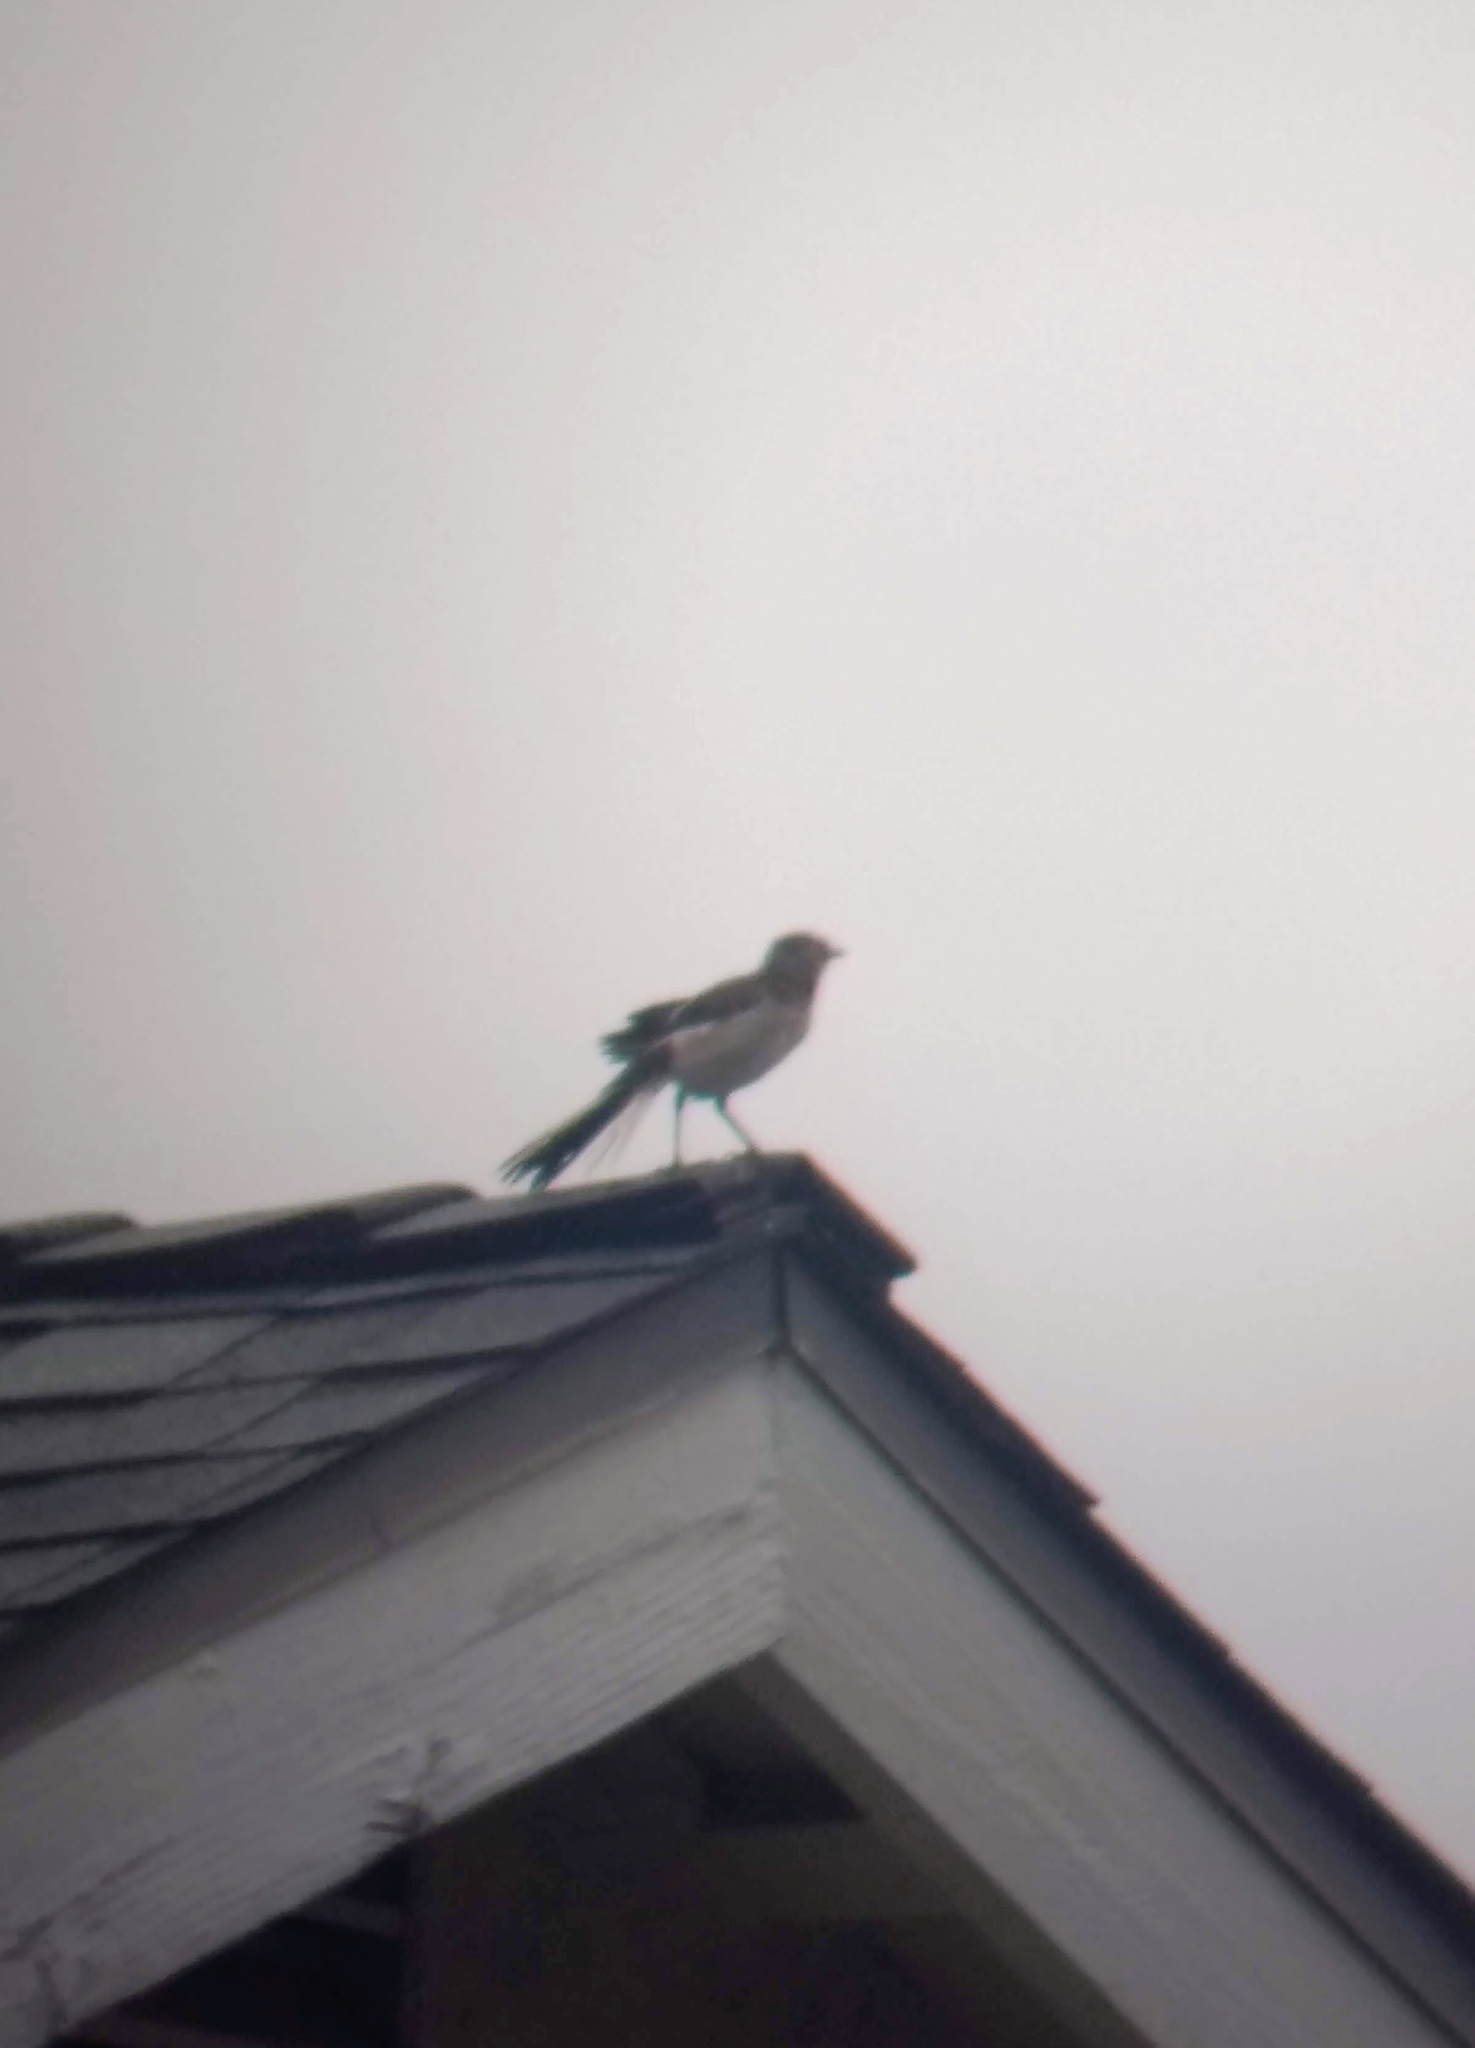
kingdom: Animalia
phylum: Chordata
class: Aves
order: Passeriformes
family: Mimidae
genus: Mimus
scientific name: Mimus polyglottos
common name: Northern mockingbird
